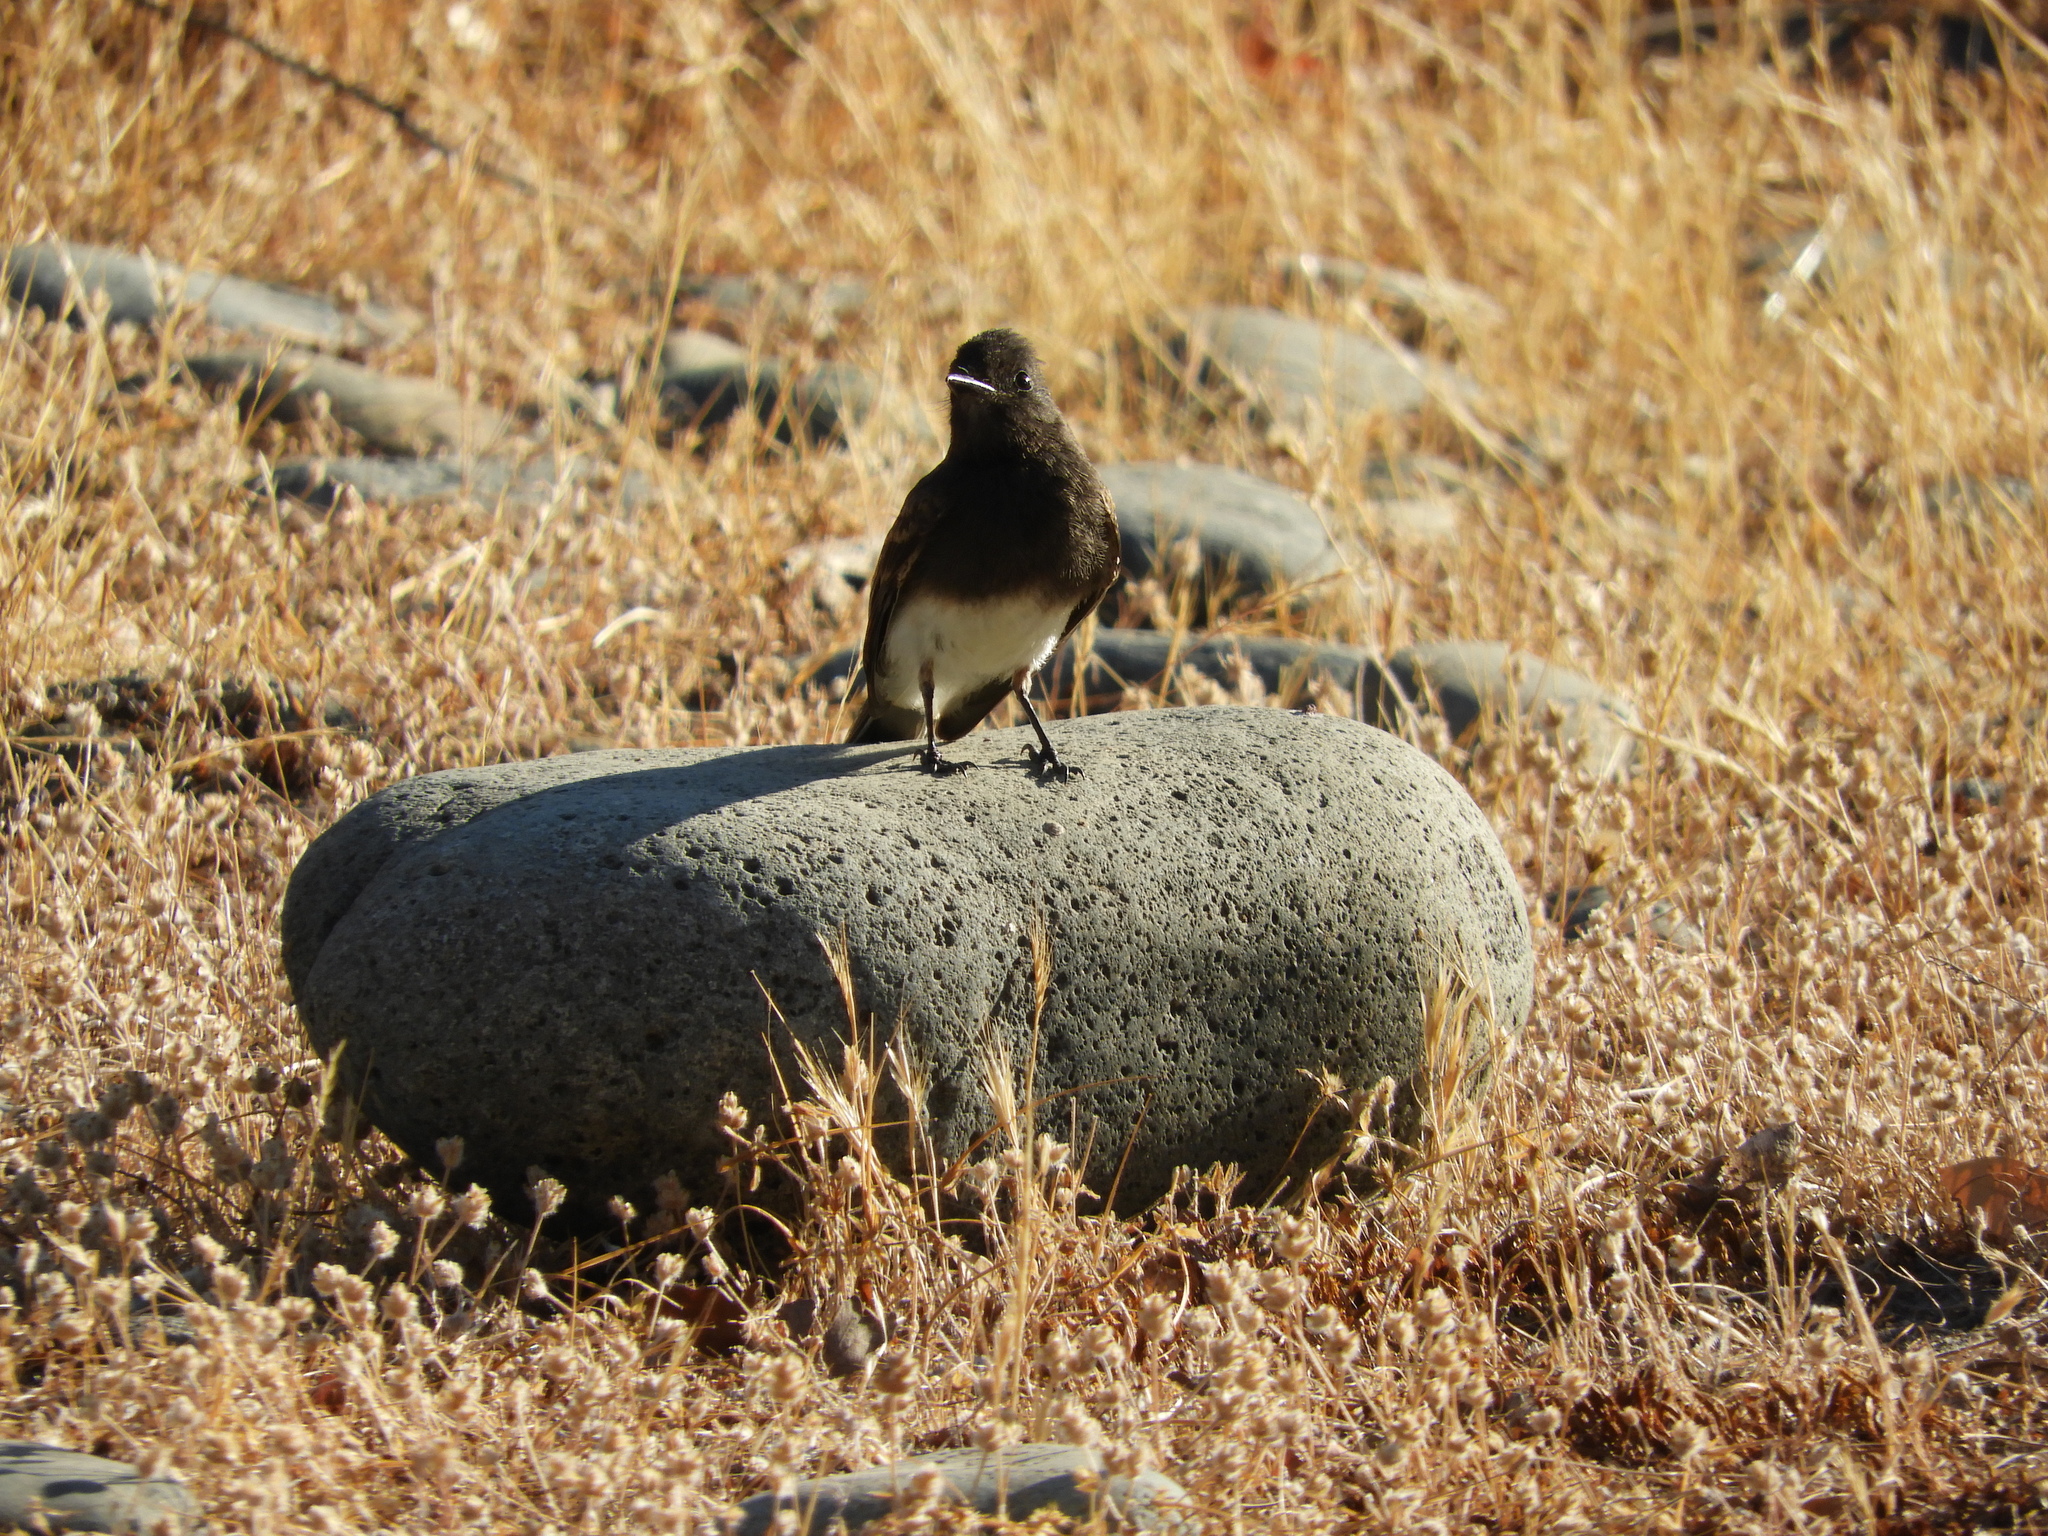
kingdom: Animalia
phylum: Chordata
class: Aves
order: Passeriformes
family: Tyrannidae
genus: Sayornis
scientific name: Sayornis nigricans
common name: Black phoebe
